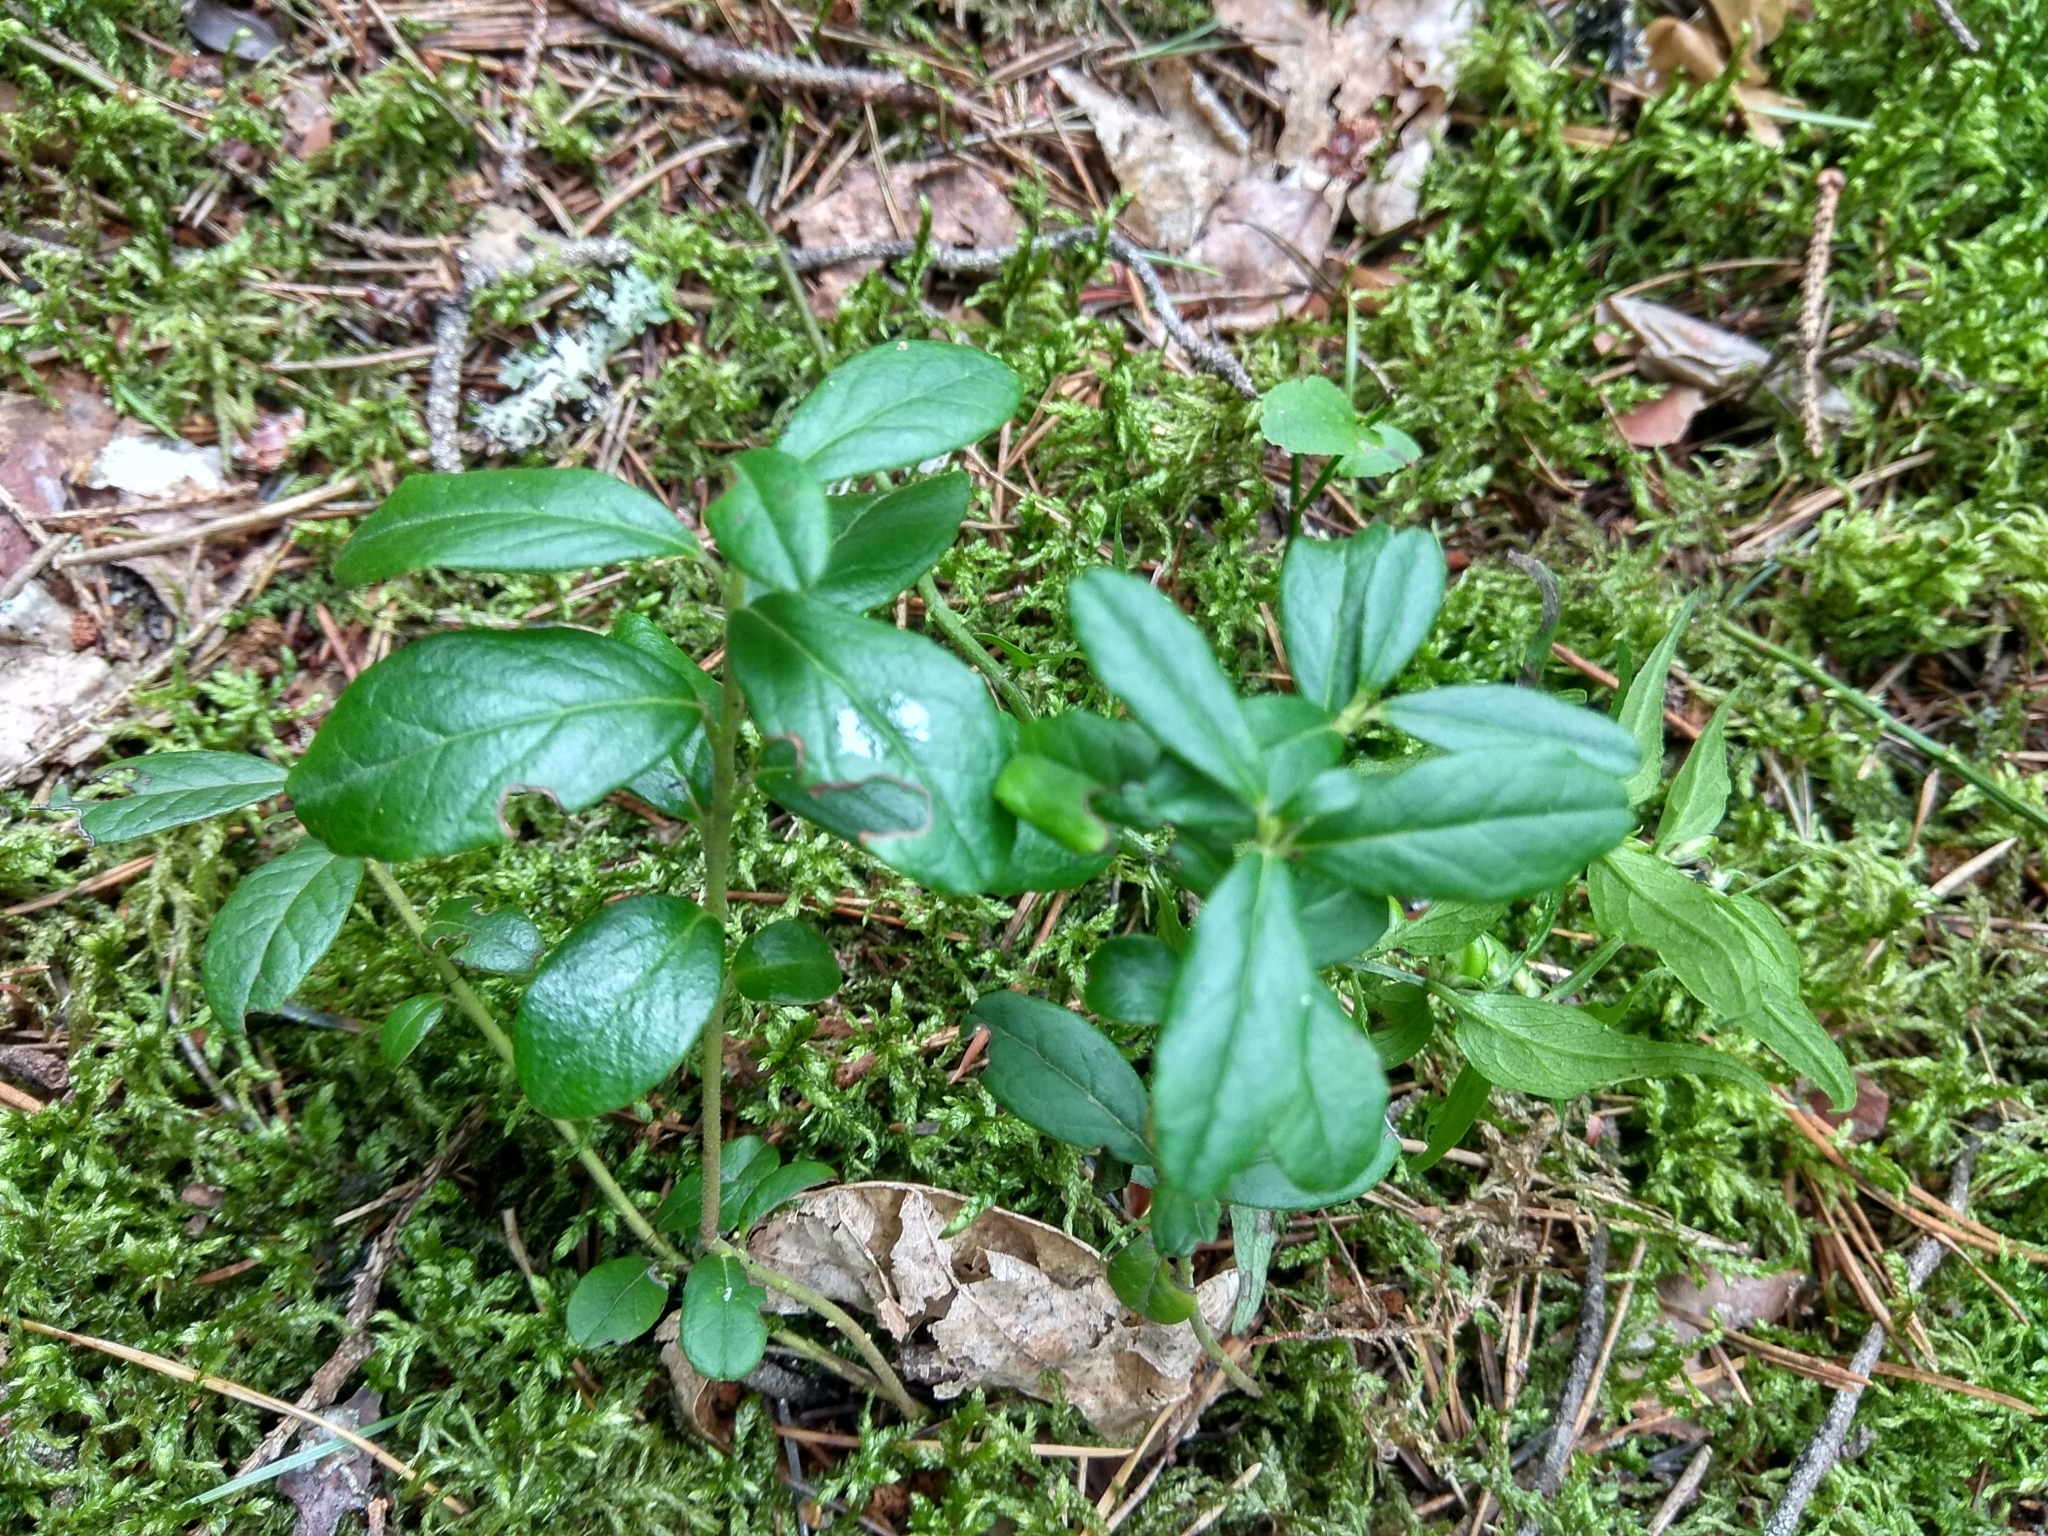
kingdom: Plantae
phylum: Tracheophyta
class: Magnoliopsida
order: Ericales
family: Ericaceae
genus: Vaccinium
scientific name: Vaccinium vitis-idaea
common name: Cowberry
